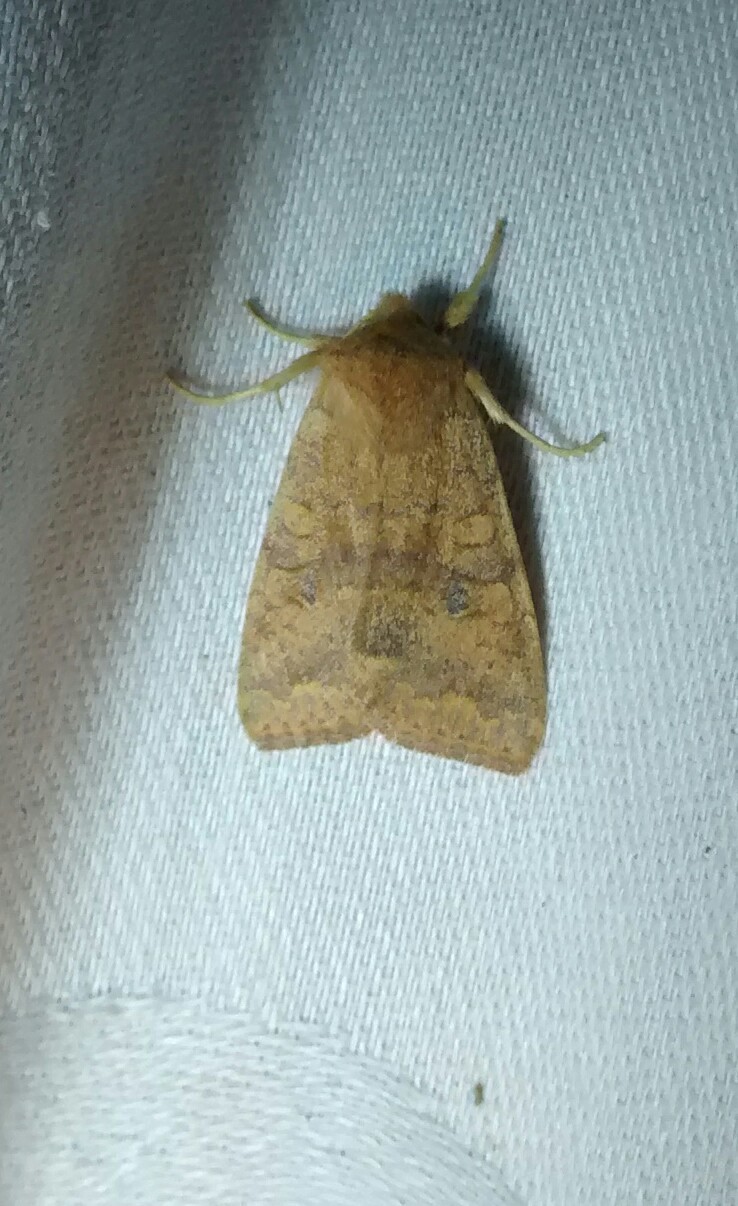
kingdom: Animalia
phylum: Arthropoda
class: Insecta
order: Lepidoptera
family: Noctuidae
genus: Agrochola
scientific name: Agrochola bicolorago
